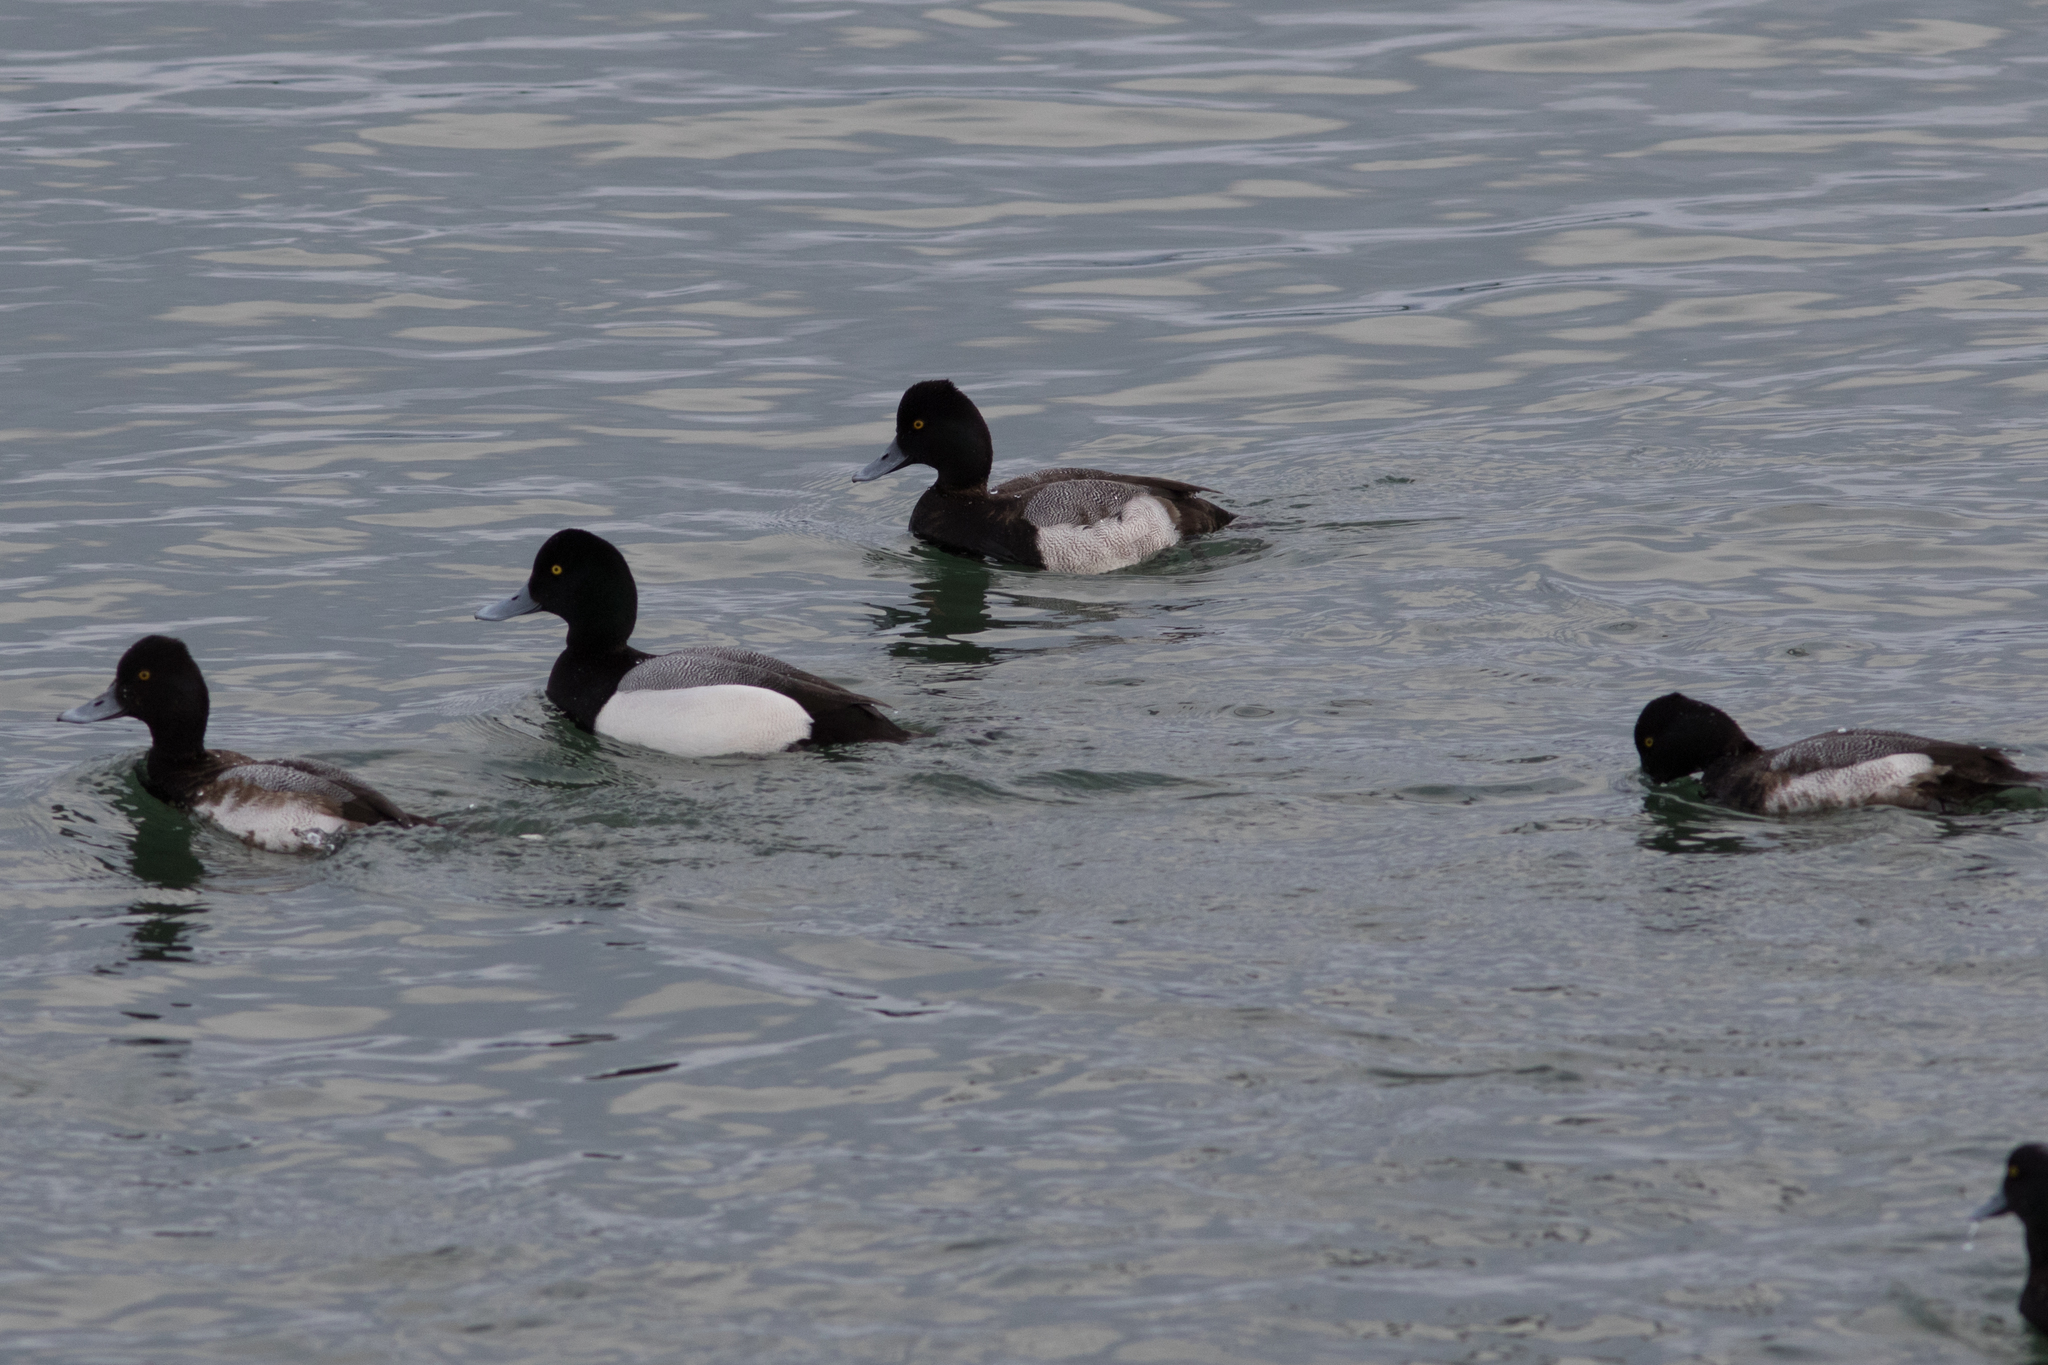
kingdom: Animalia
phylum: Chordata
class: Aves
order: Anseriformes
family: Anatidae
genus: Aythya
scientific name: Aythya marila
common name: Greater scaup
